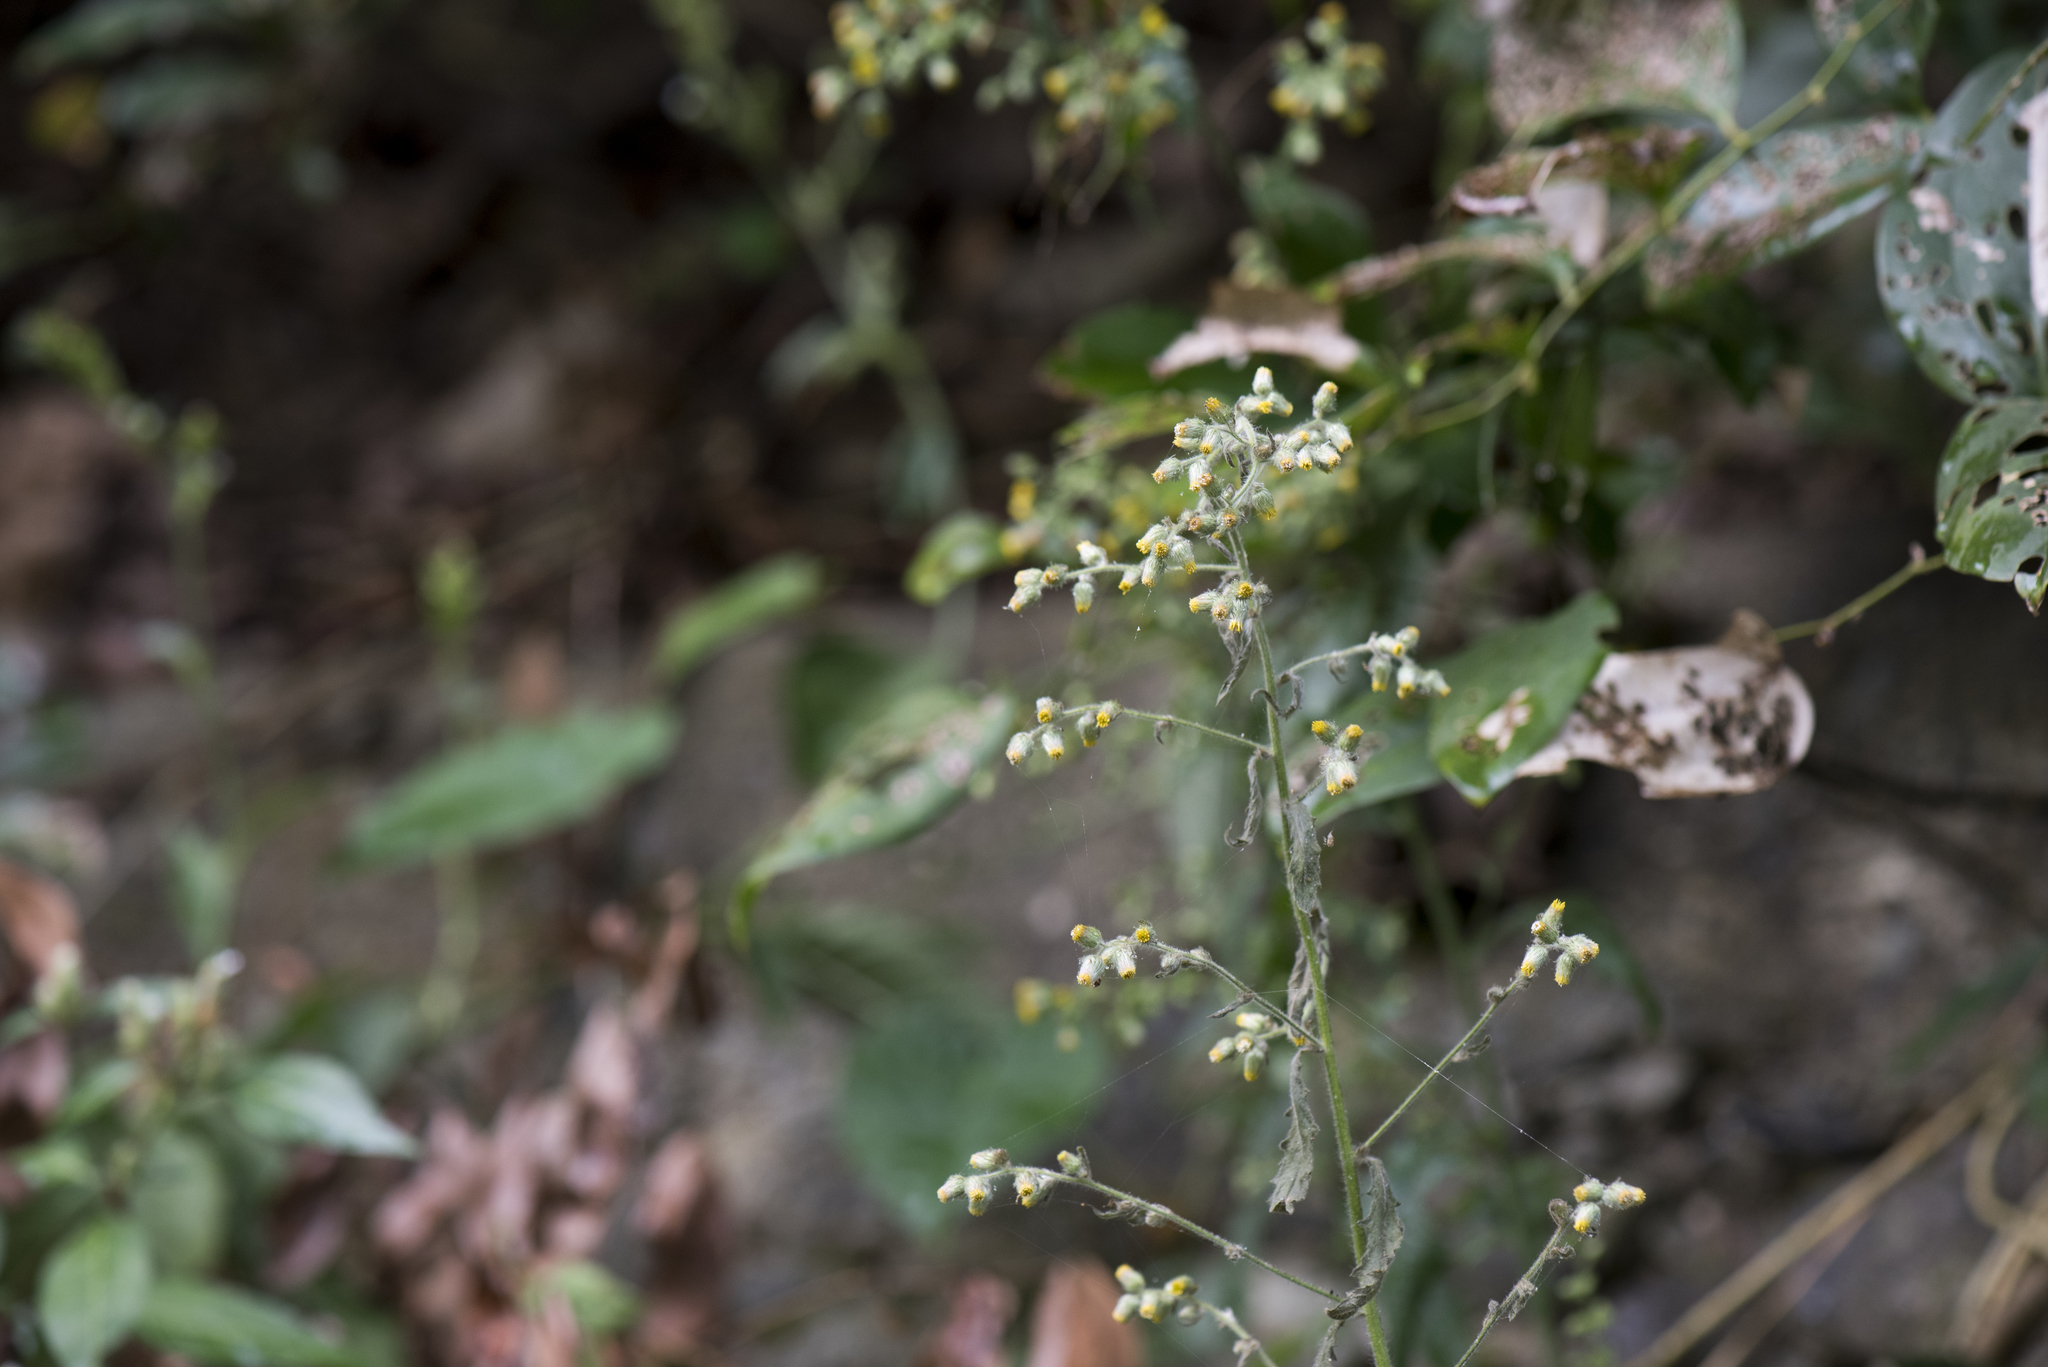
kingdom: Plantae
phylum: Tracheophyta
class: Magnoliopsida
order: Asterales
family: Asteraceae
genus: Blumea
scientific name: Blumea sinuata
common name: Cutleaf false oxtongue
